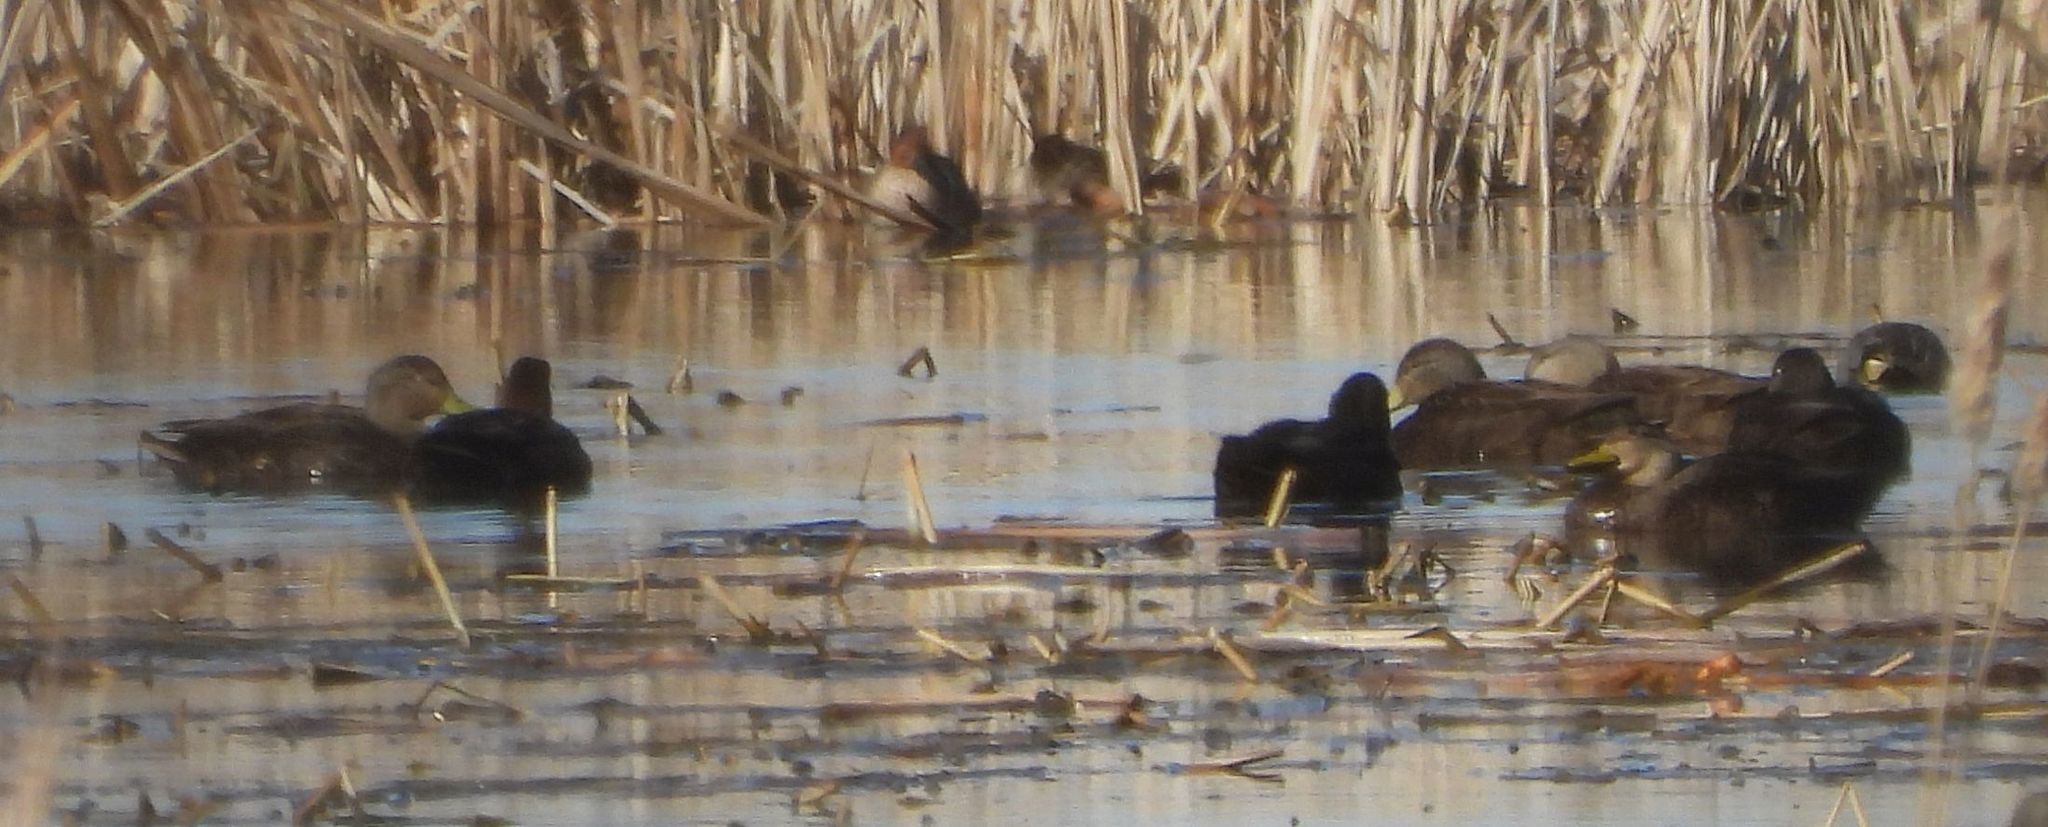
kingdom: Animalia
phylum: Chordata
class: Aves
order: Anseriformes
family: Anatidae
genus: Anas
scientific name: Anas rubripes
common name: American black duck
